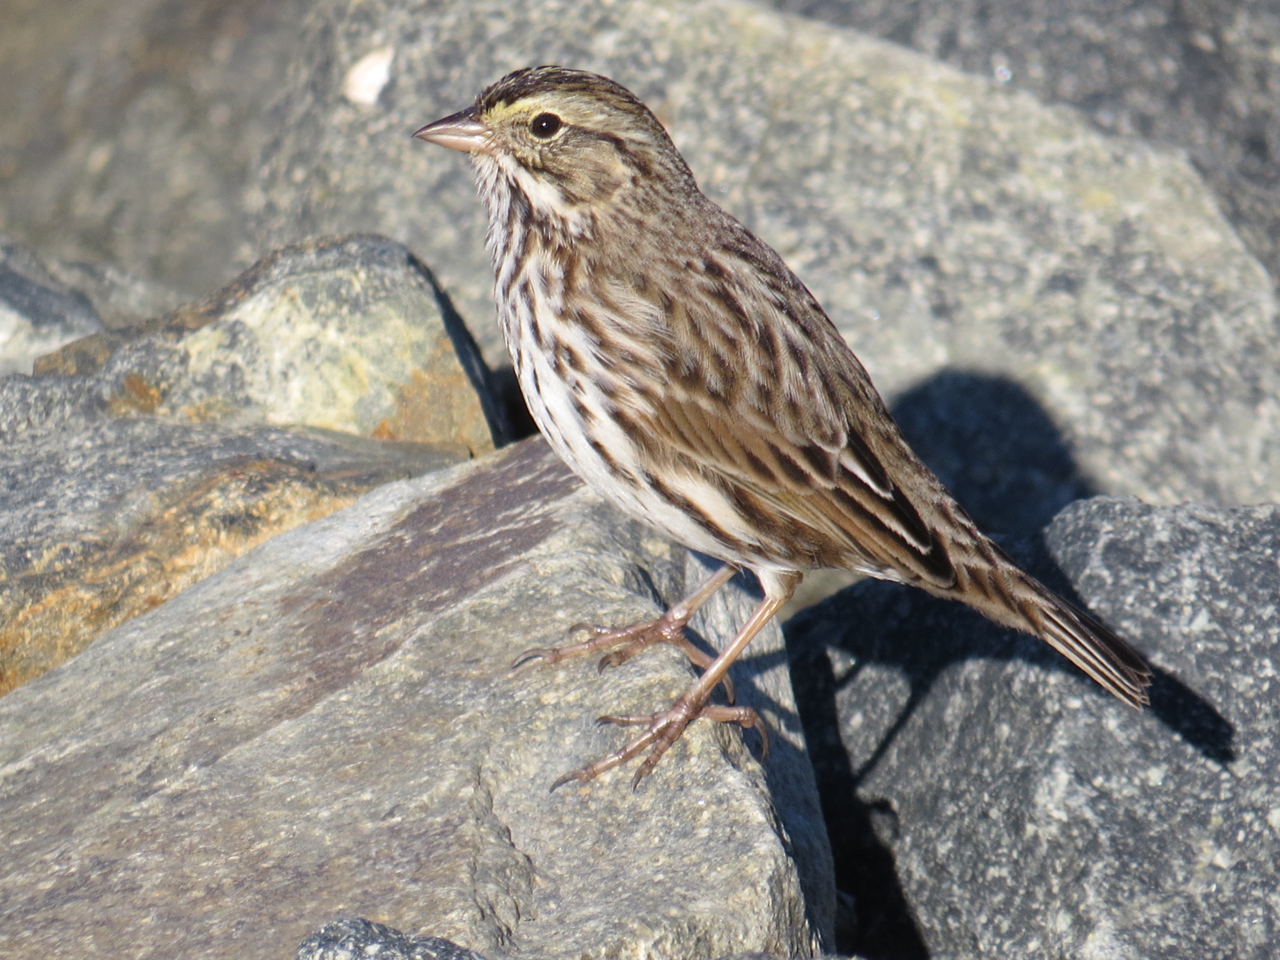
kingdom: Animalia
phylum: Chordata
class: Aves
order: Passeriformes
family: Passerellidae
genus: Passerculus
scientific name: Passerculus sandwichensis
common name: Savannah sparrow
